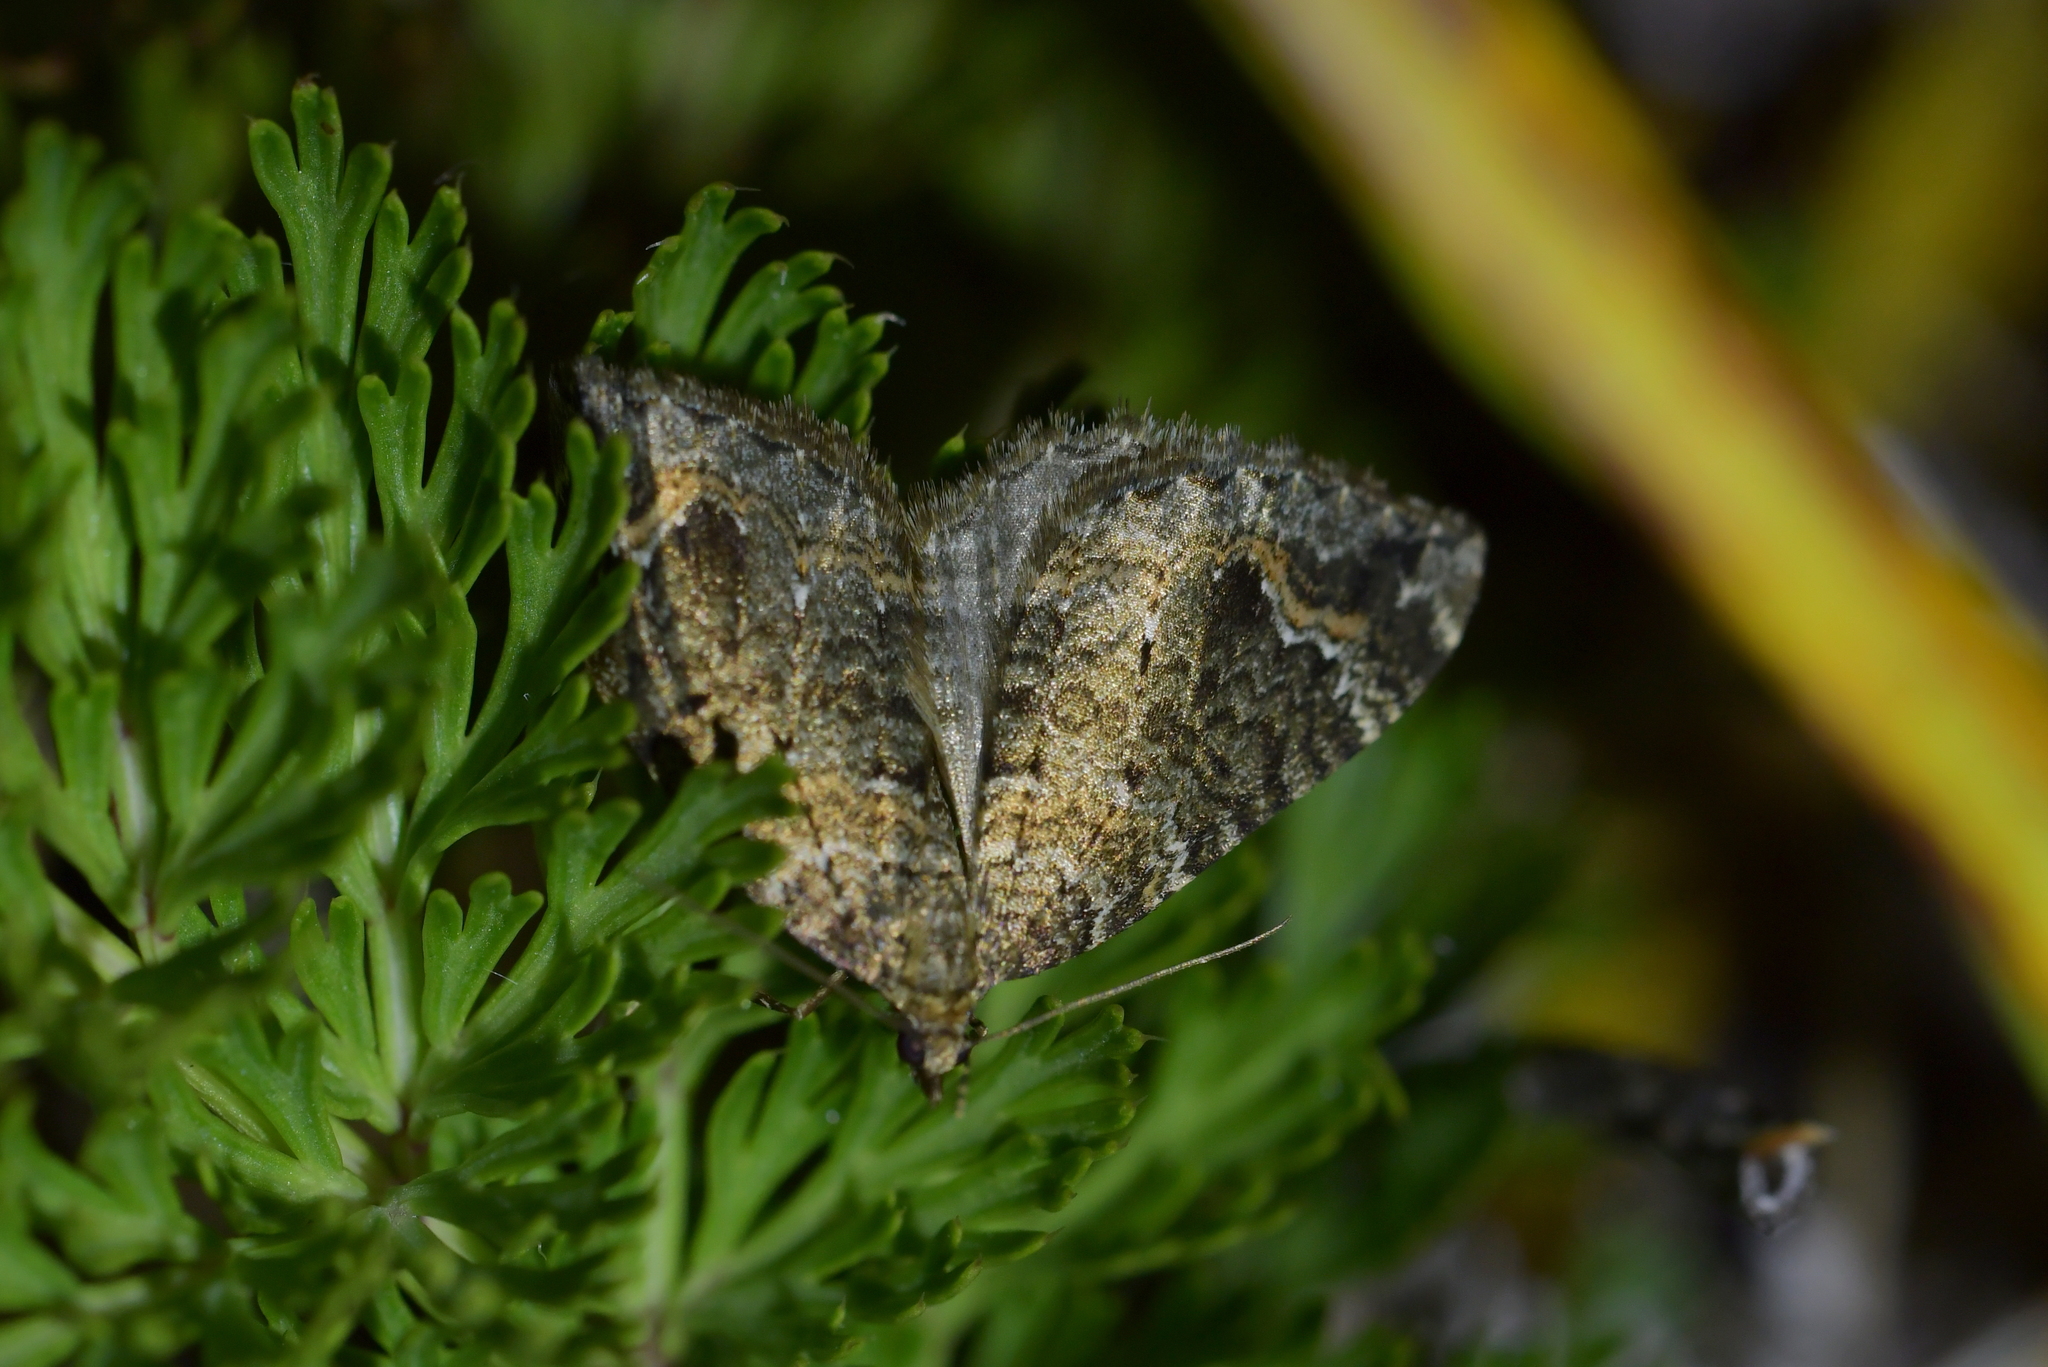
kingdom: Animalia
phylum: Arthropoda
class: Insecta
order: Lepidoptera
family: Geometridae
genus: Hydriomena
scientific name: Hydriomena hemizona
